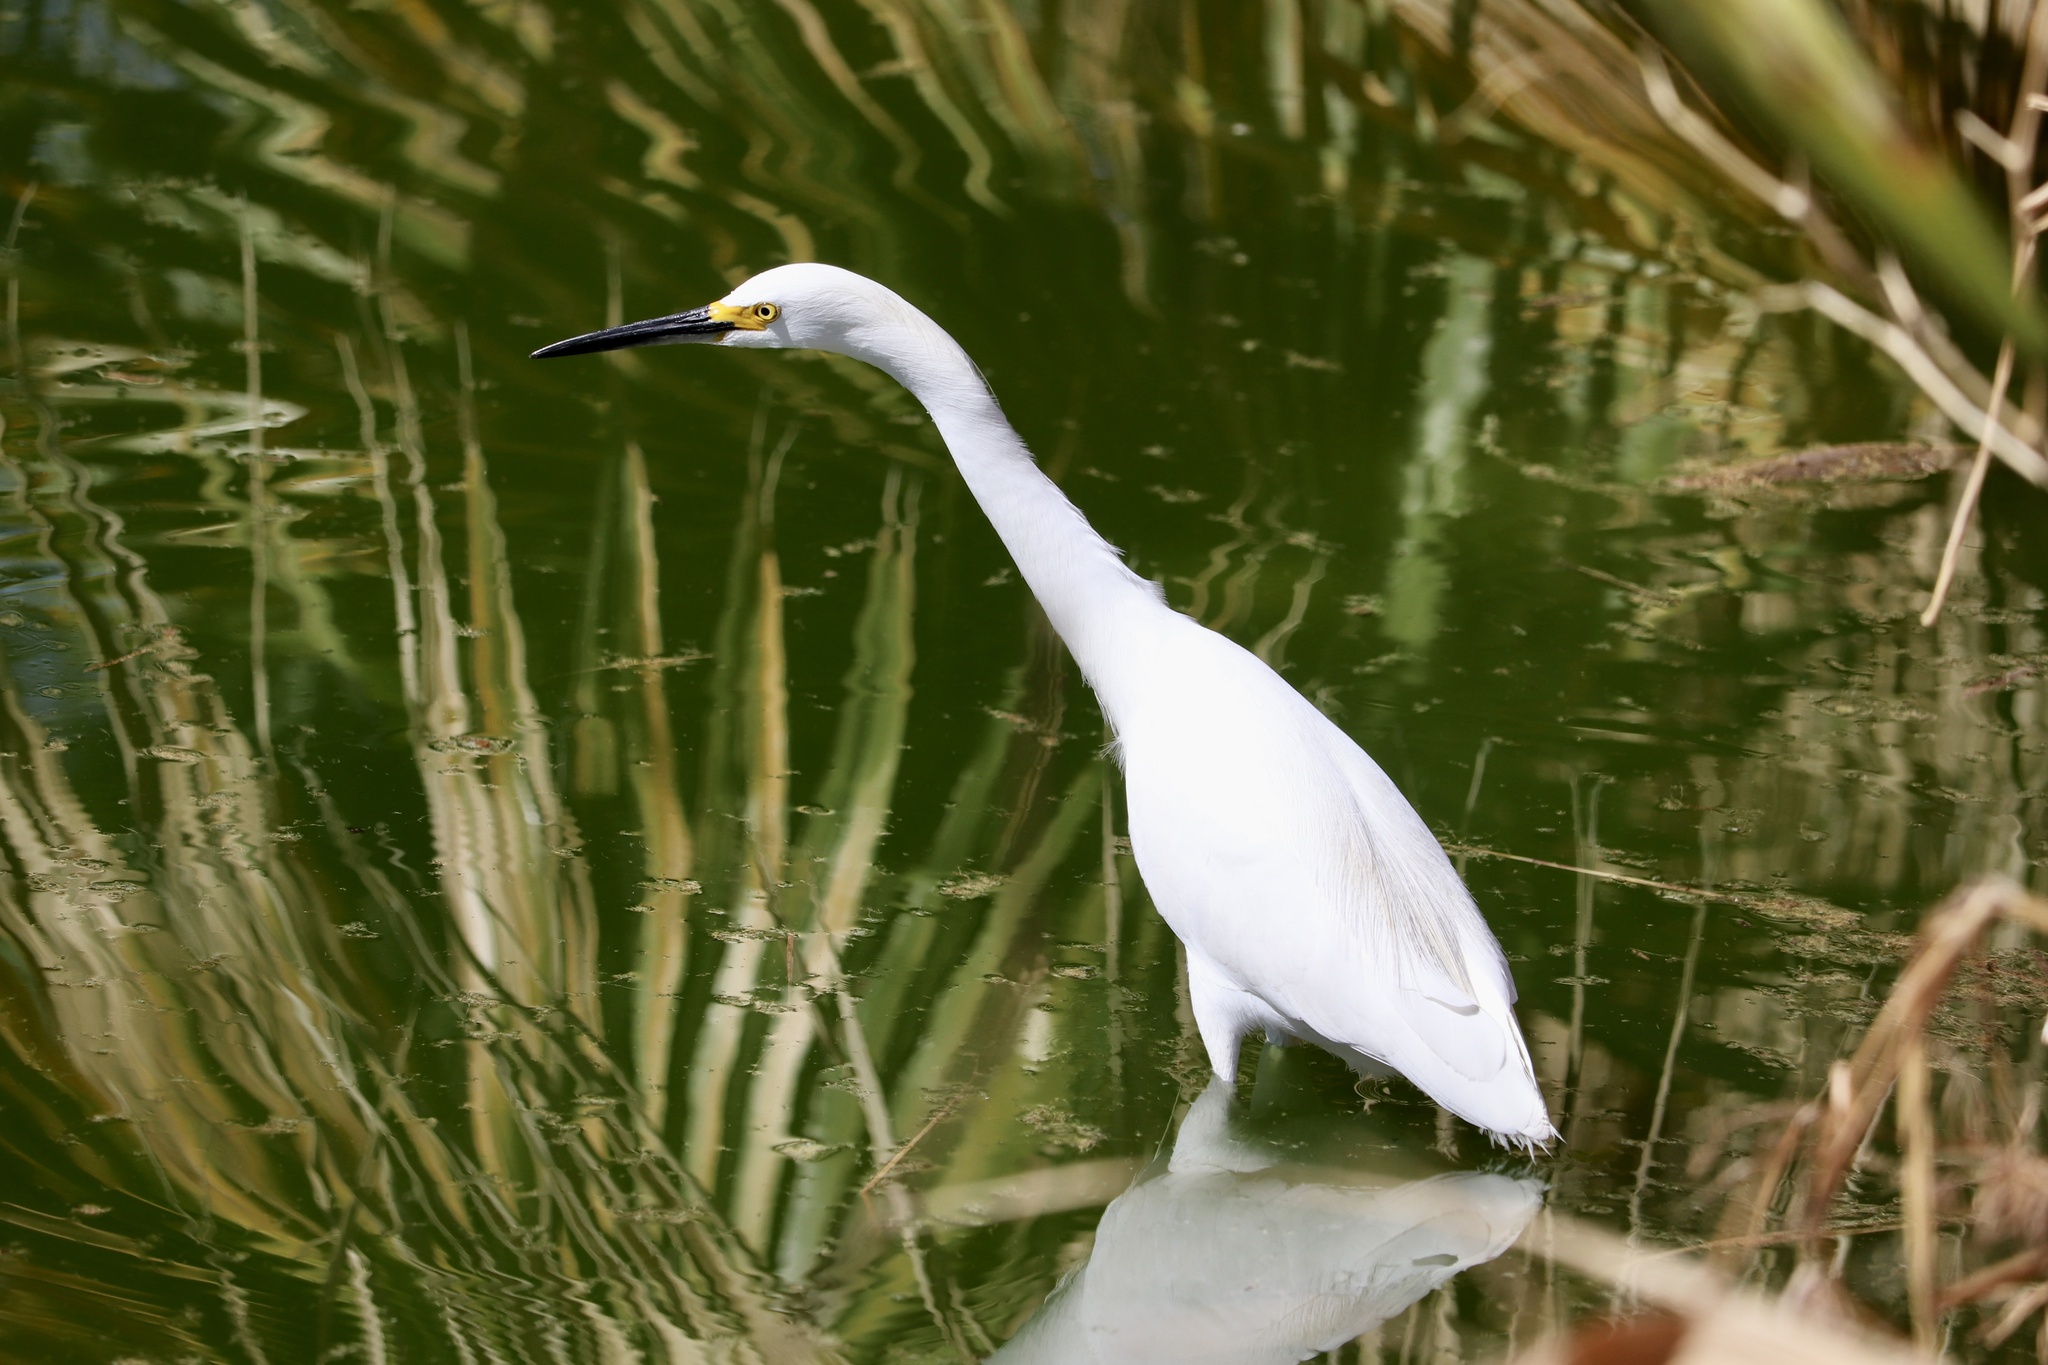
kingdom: Animalia
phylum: Chordata
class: Aves
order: Pelecaniformes
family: Ardeidae
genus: Egretta
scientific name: Egretta thula
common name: Snowy egret
